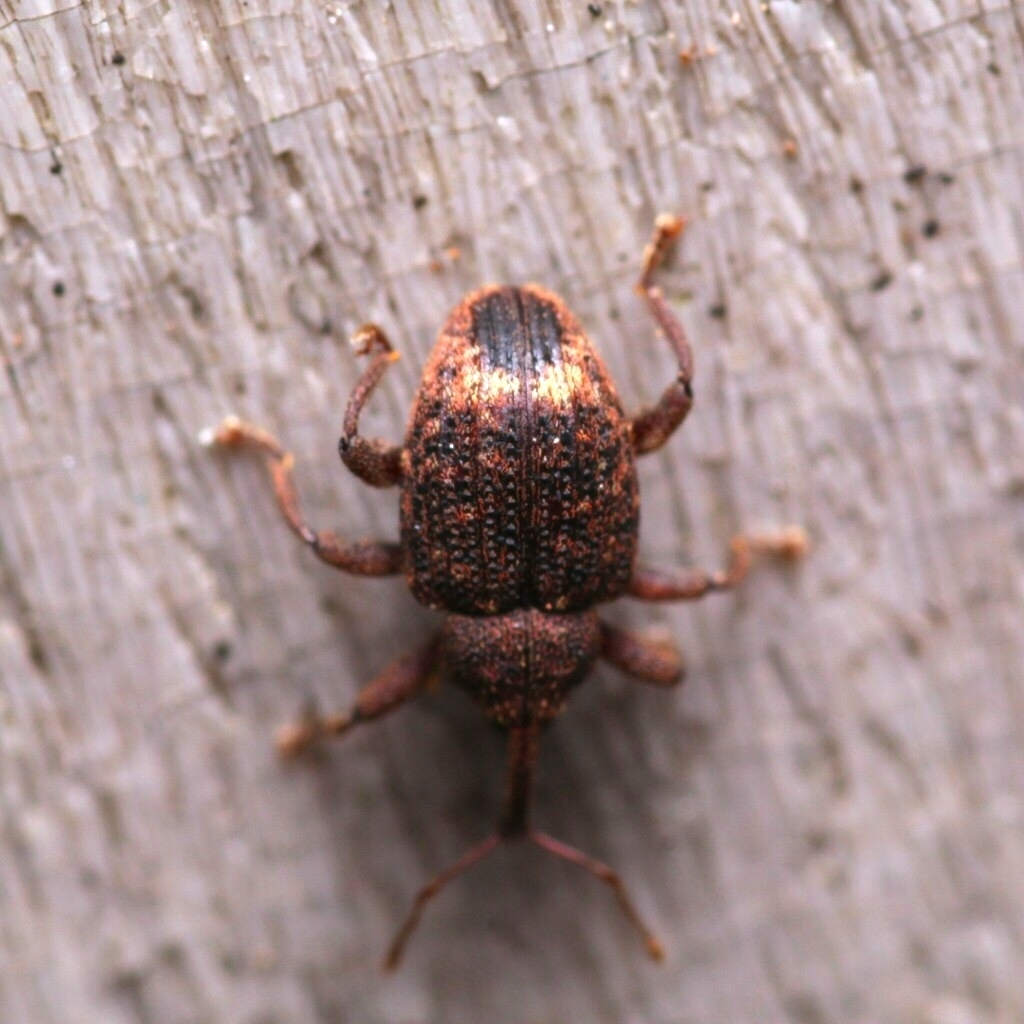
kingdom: Animalia
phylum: Arthropoda
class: Insecta
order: Coleoptera
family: Curculionidae
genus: Conotrachelus
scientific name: Conotrachelus posticatus
